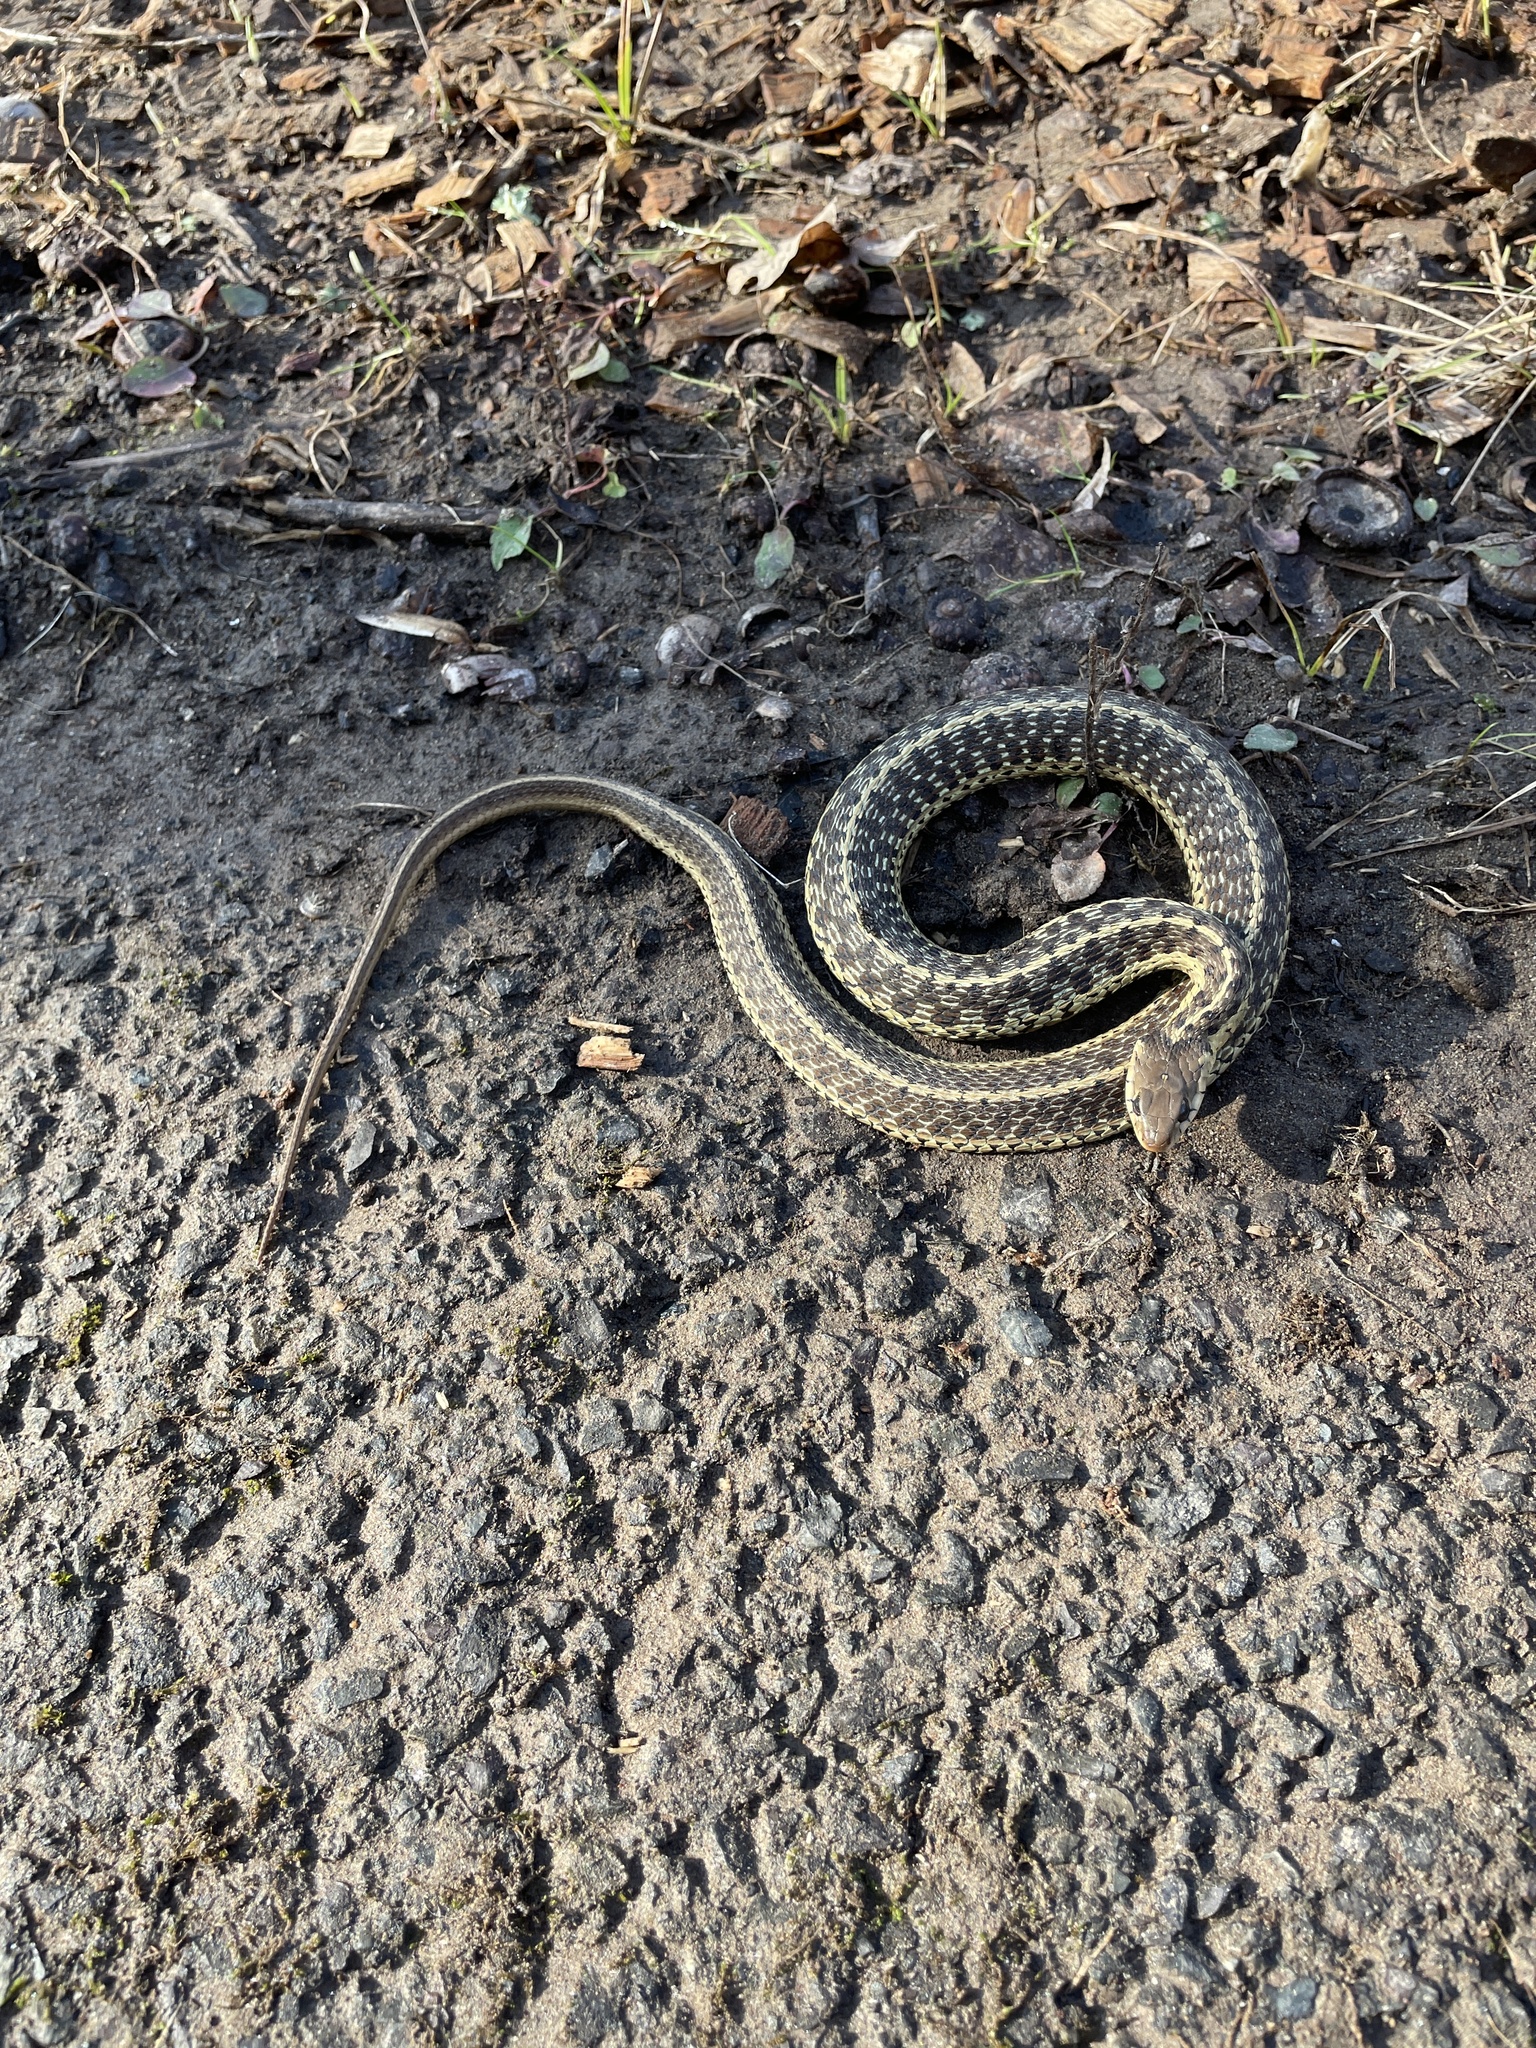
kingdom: Animalia
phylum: Chordata
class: Squamata
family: Colubridae
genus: Thamnophis
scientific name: Thamnophis sirtalis
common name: Common garter snake
